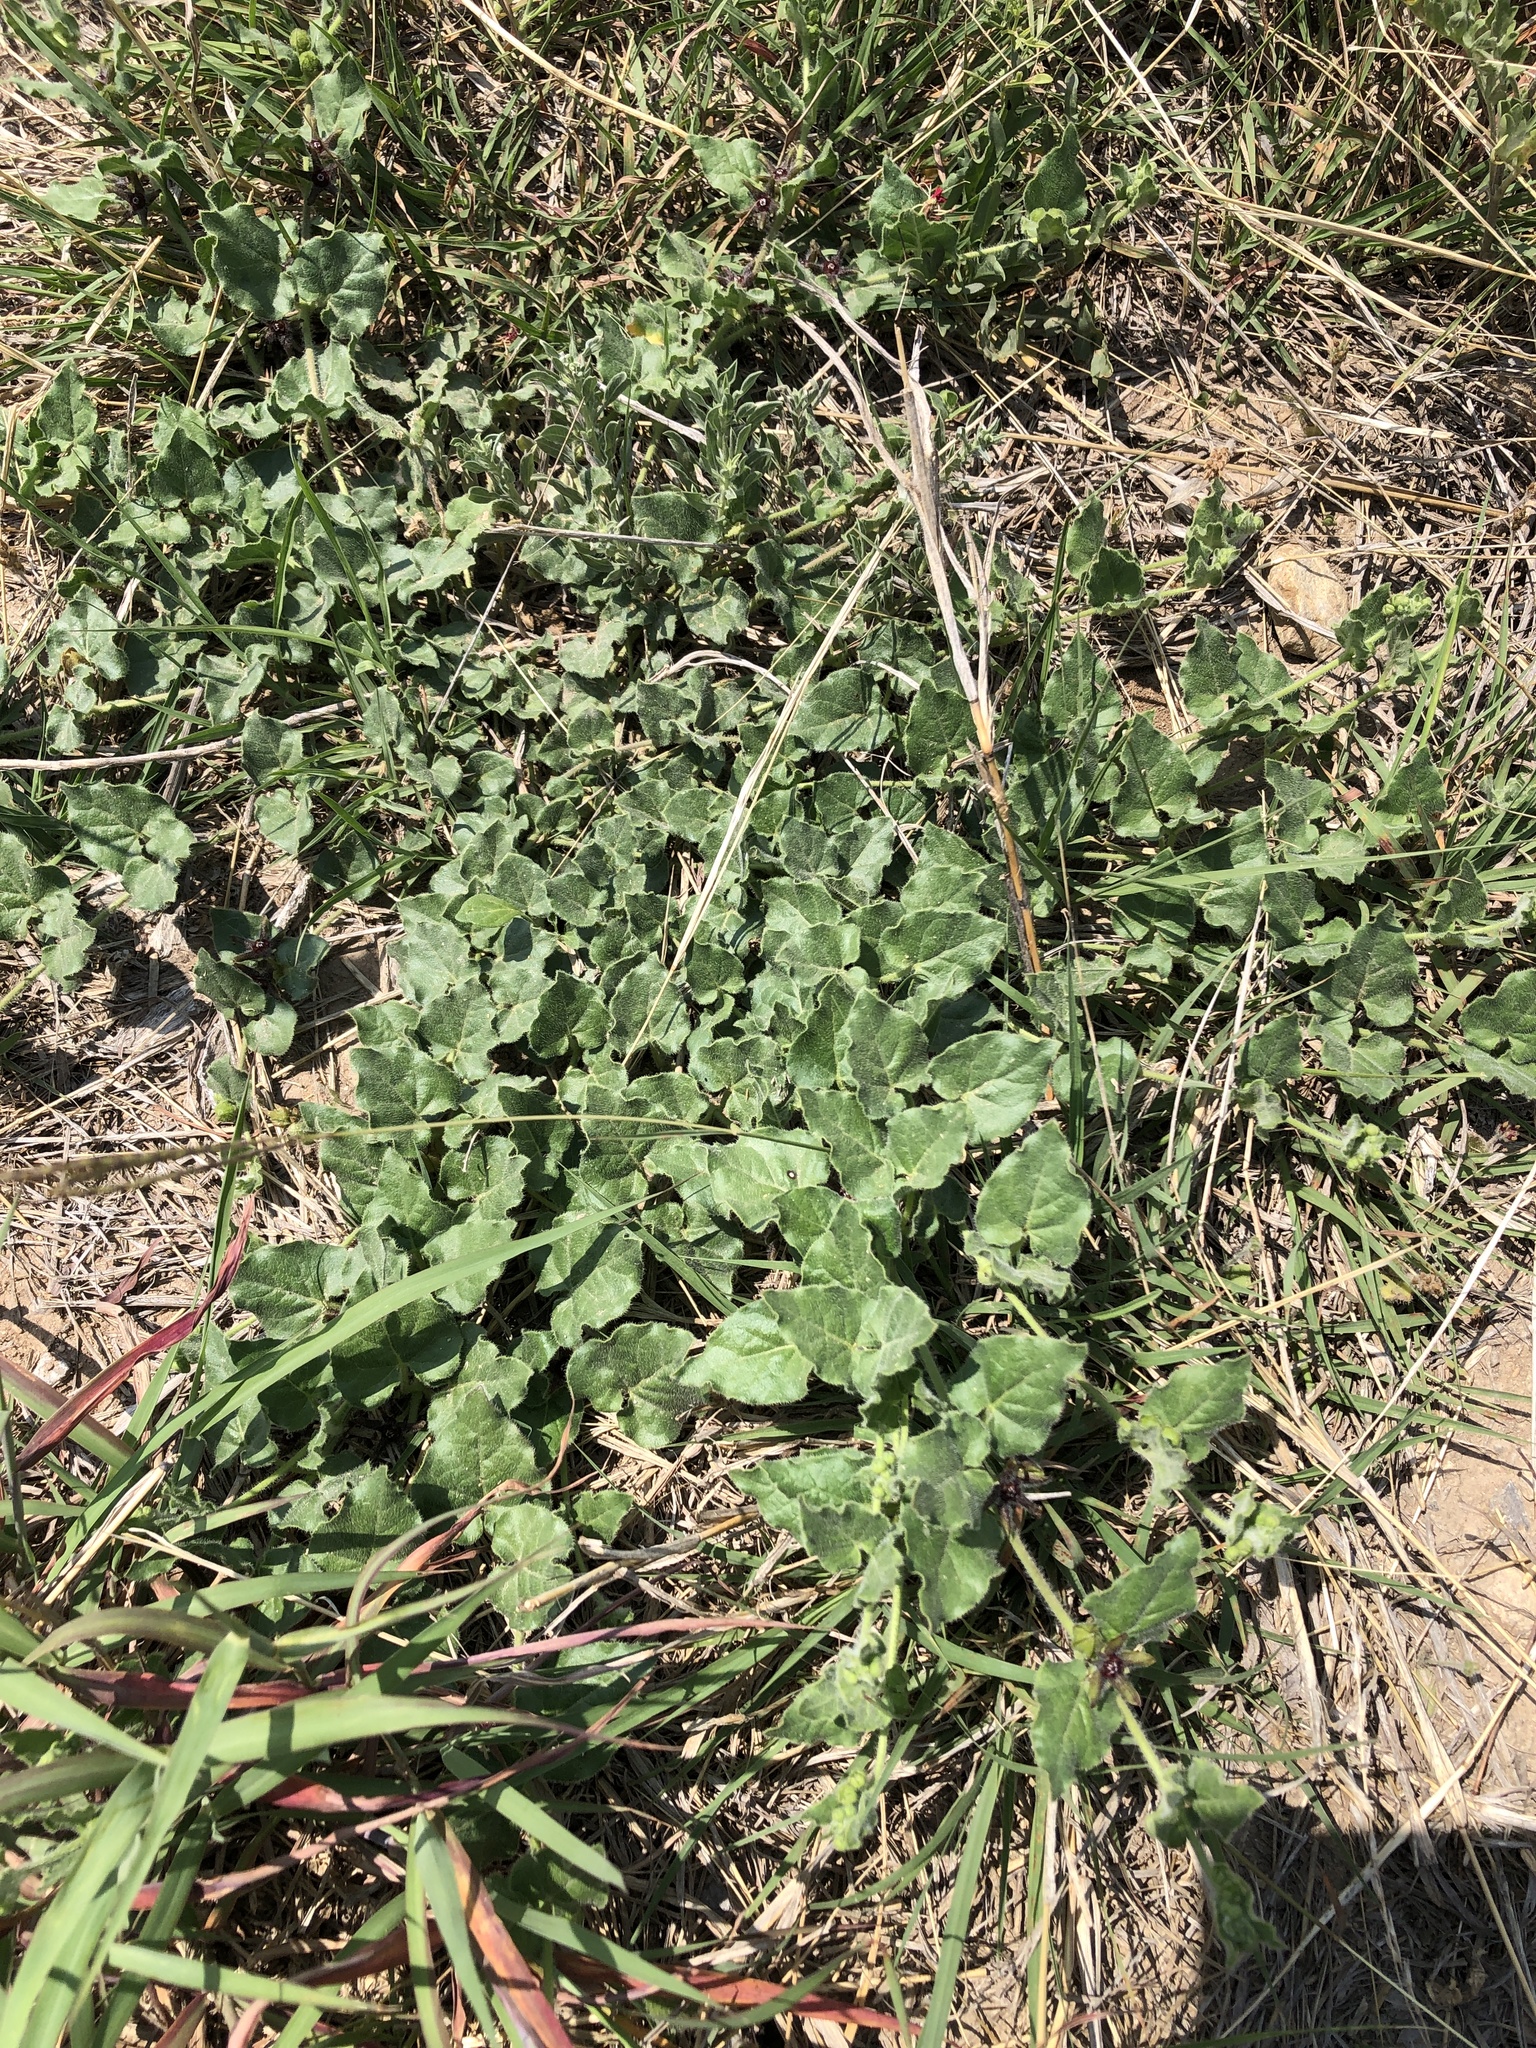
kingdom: Plantae
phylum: Tracheophyta
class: Magnoliopsida
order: Gentianales
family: Apocynaceae
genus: Chthamalia
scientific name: Chthamalia biflora
